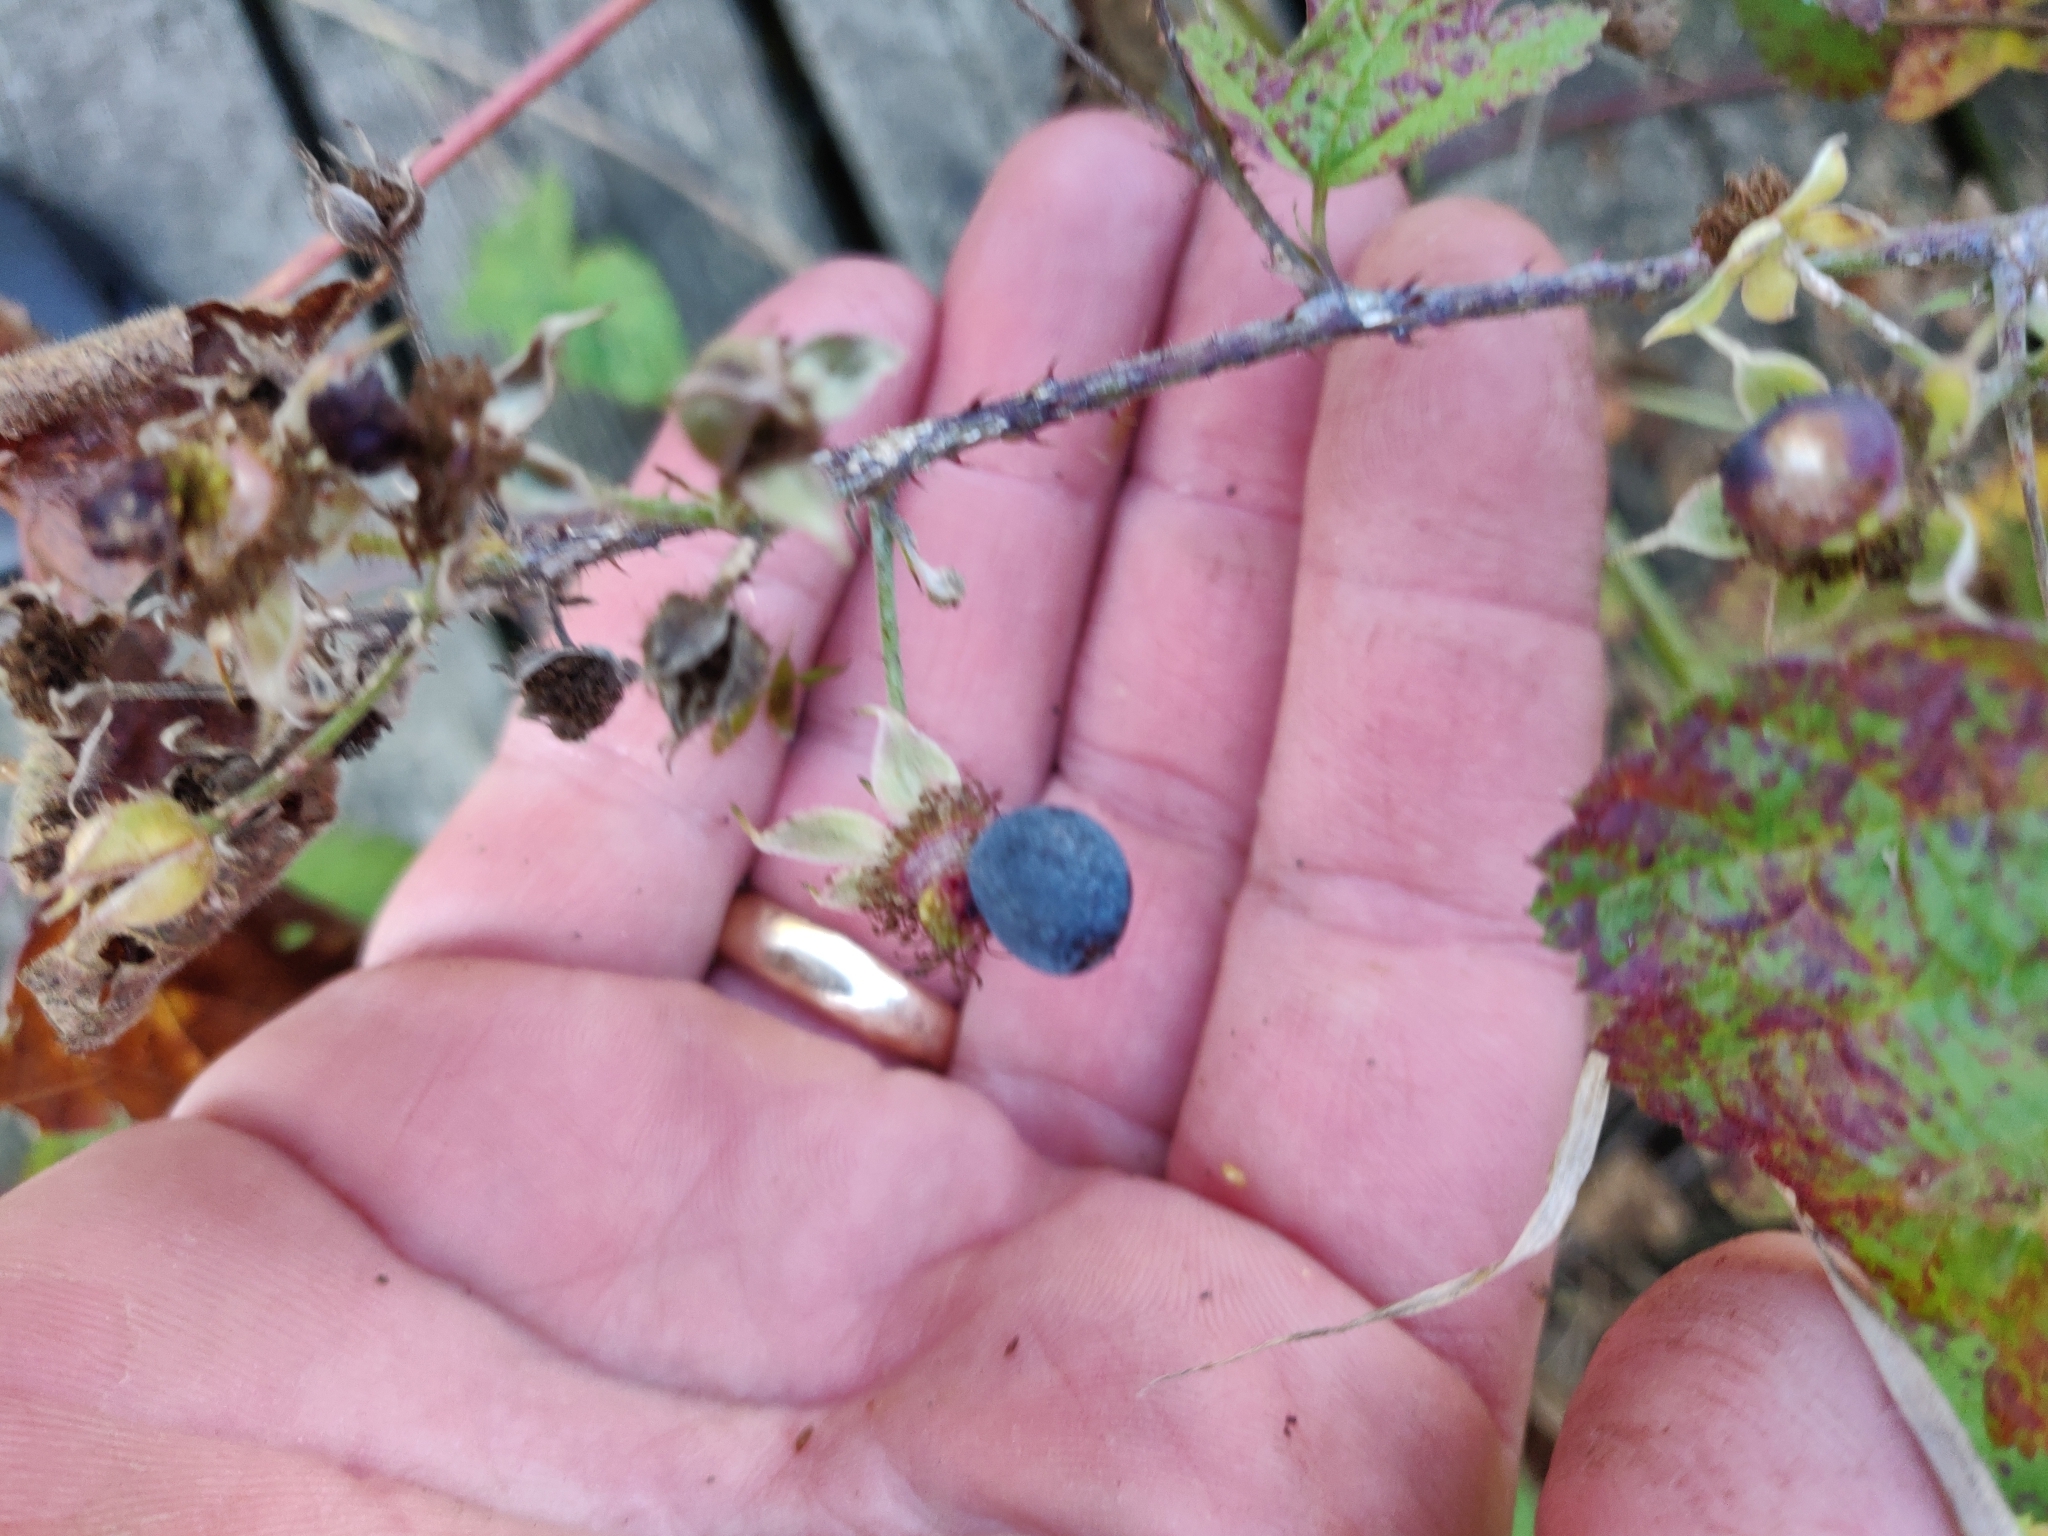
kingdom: Plantae
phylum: Tracheophyta
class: Magnoliopsida
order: Rosales
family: Rosaceae
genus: Rubus
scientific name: Rubus caesius
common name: Dewberry
